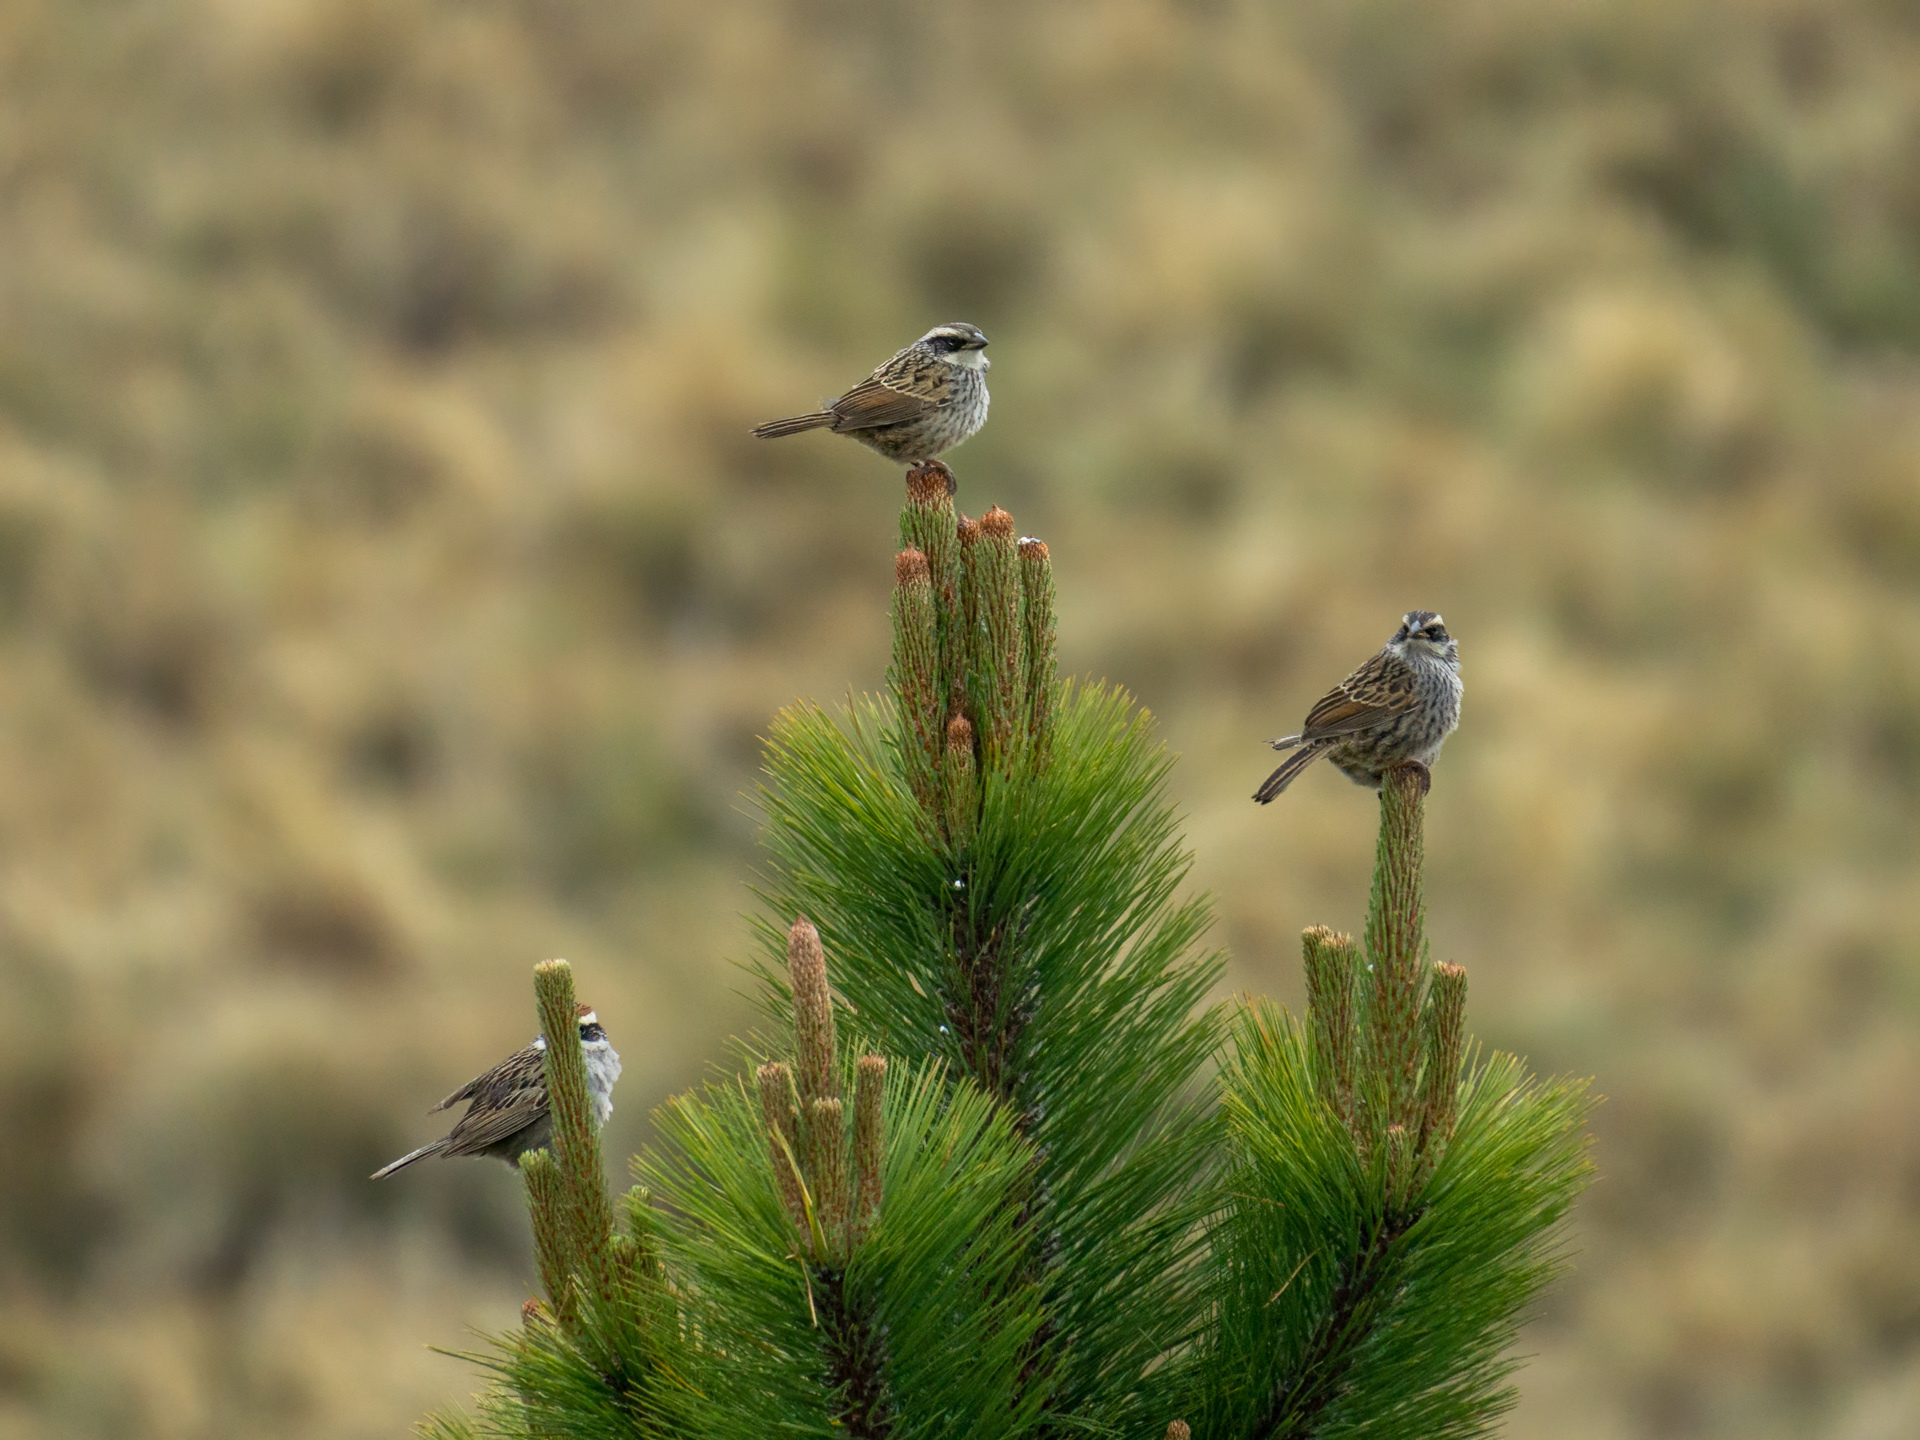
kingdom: Animalia
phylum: Chordata
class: Aves
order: Passeriformes
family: Passerellidae
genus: Oriturus
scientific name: Oriturus superciliosus
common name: Striped sparrow
